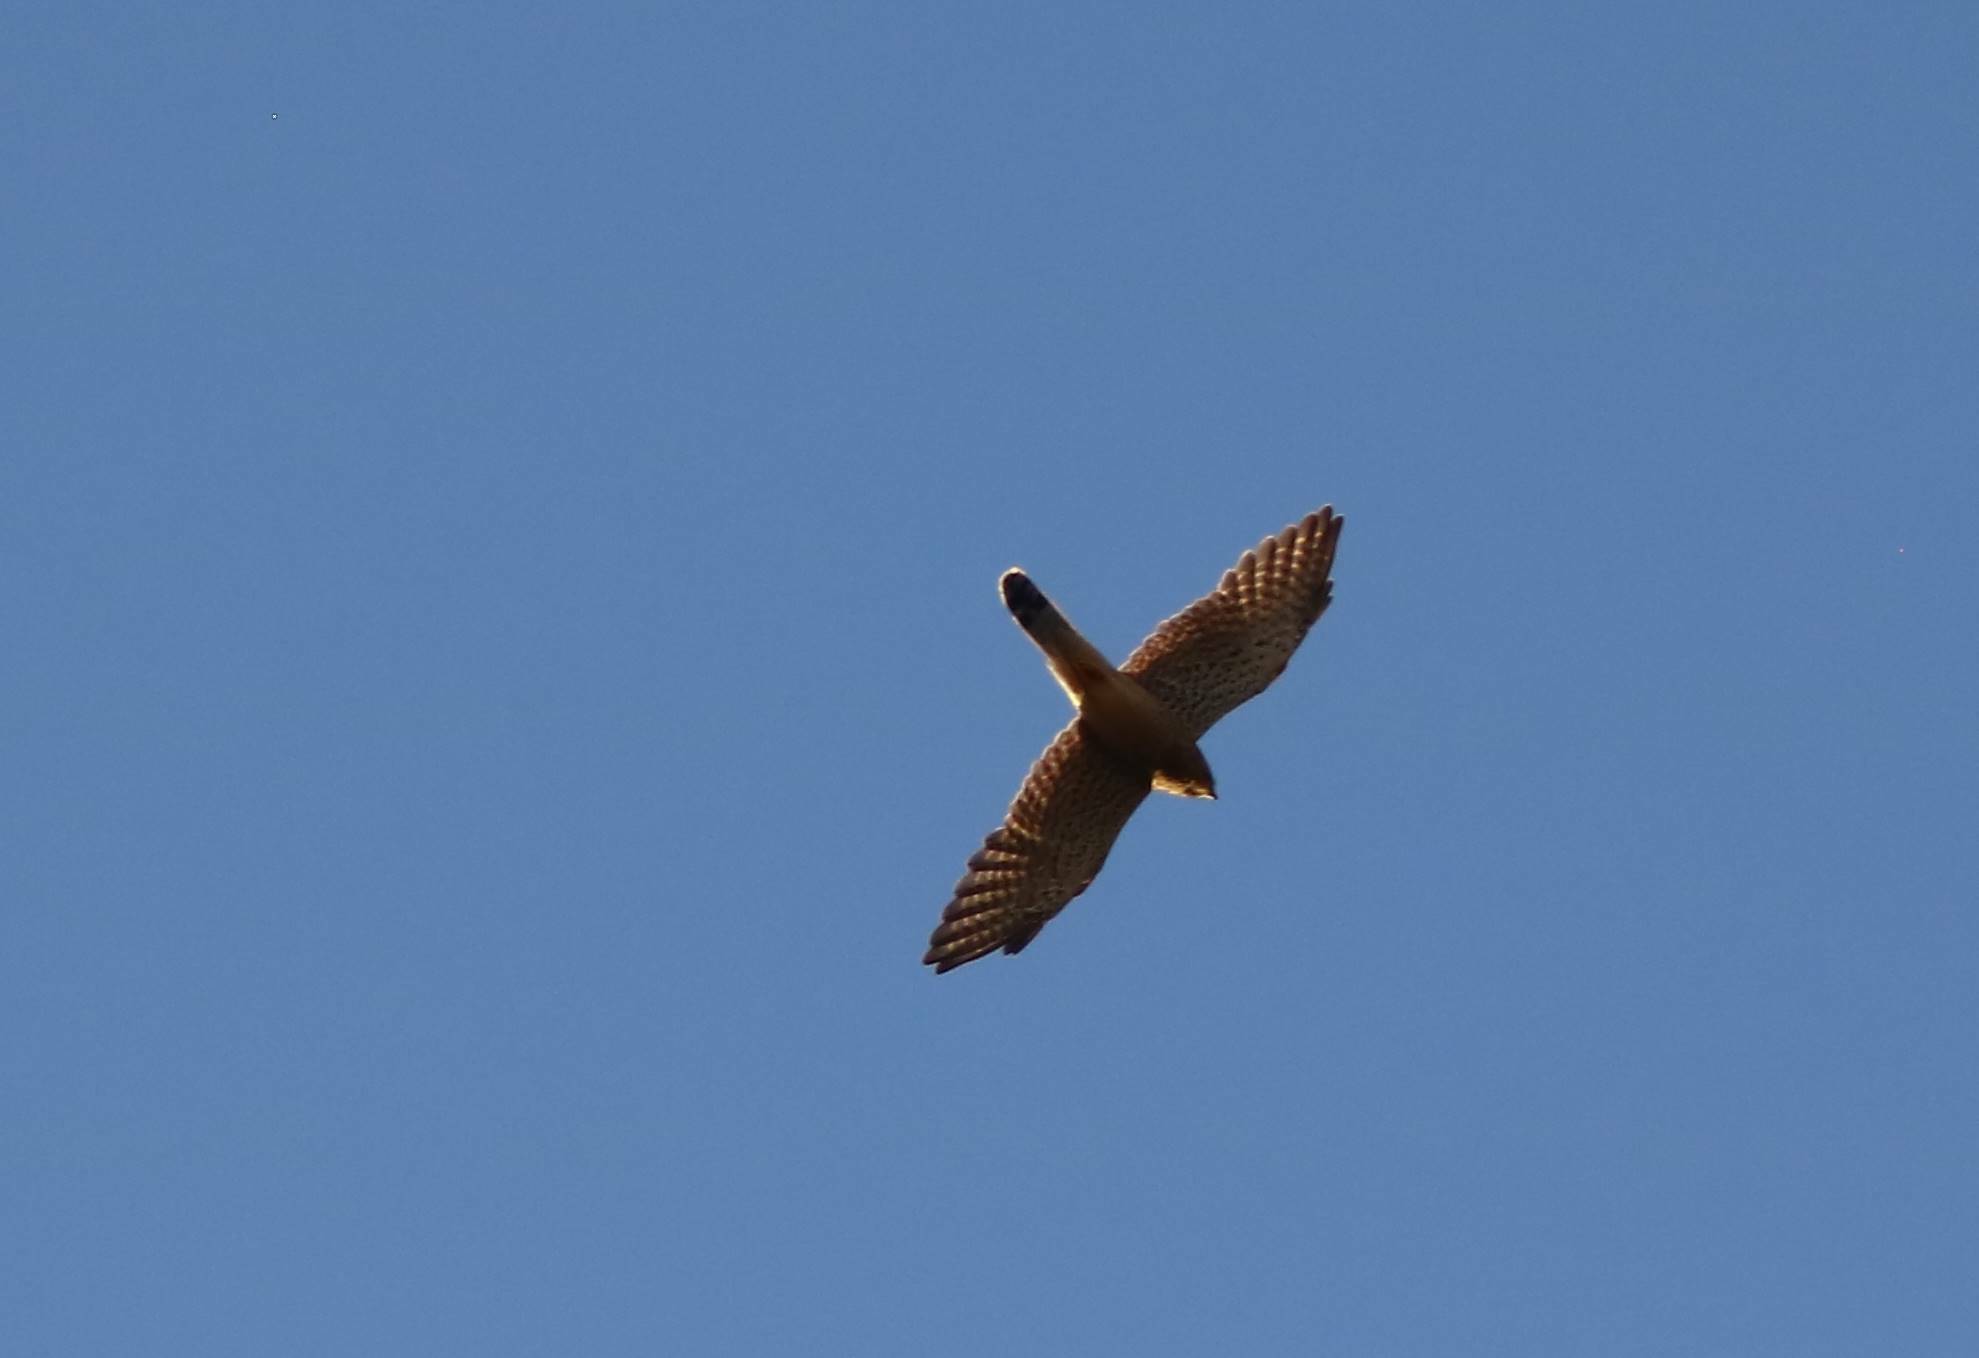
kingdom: Animalia
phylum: Chordata
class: Aves
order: Falconiformes
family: Falconidae
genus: Falco
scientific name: Falco tinnunculus
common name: Common kestrel
